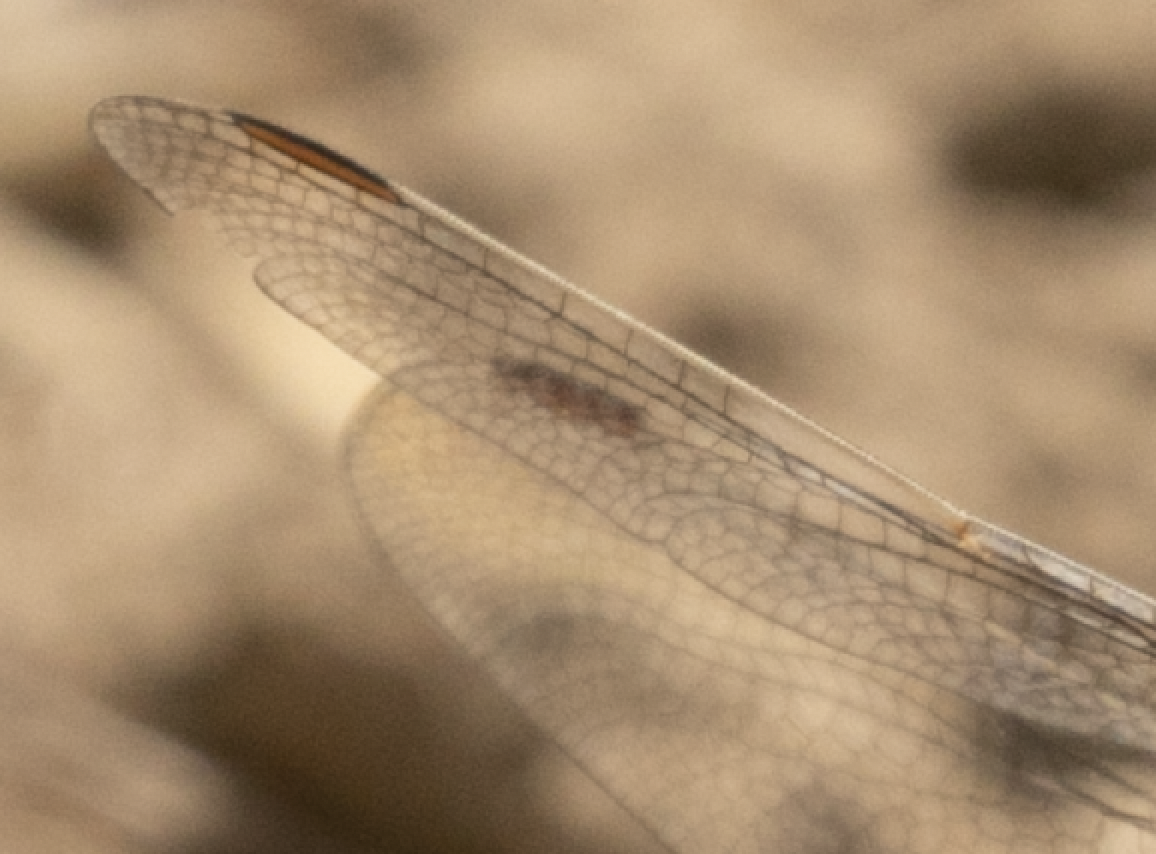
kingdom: Animalia
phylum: Arthropoda
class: Insecta
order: Odonata
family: Libellulidae
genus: Orthetrum
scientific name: Orthetrum brunneum
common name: Southern skimmer
